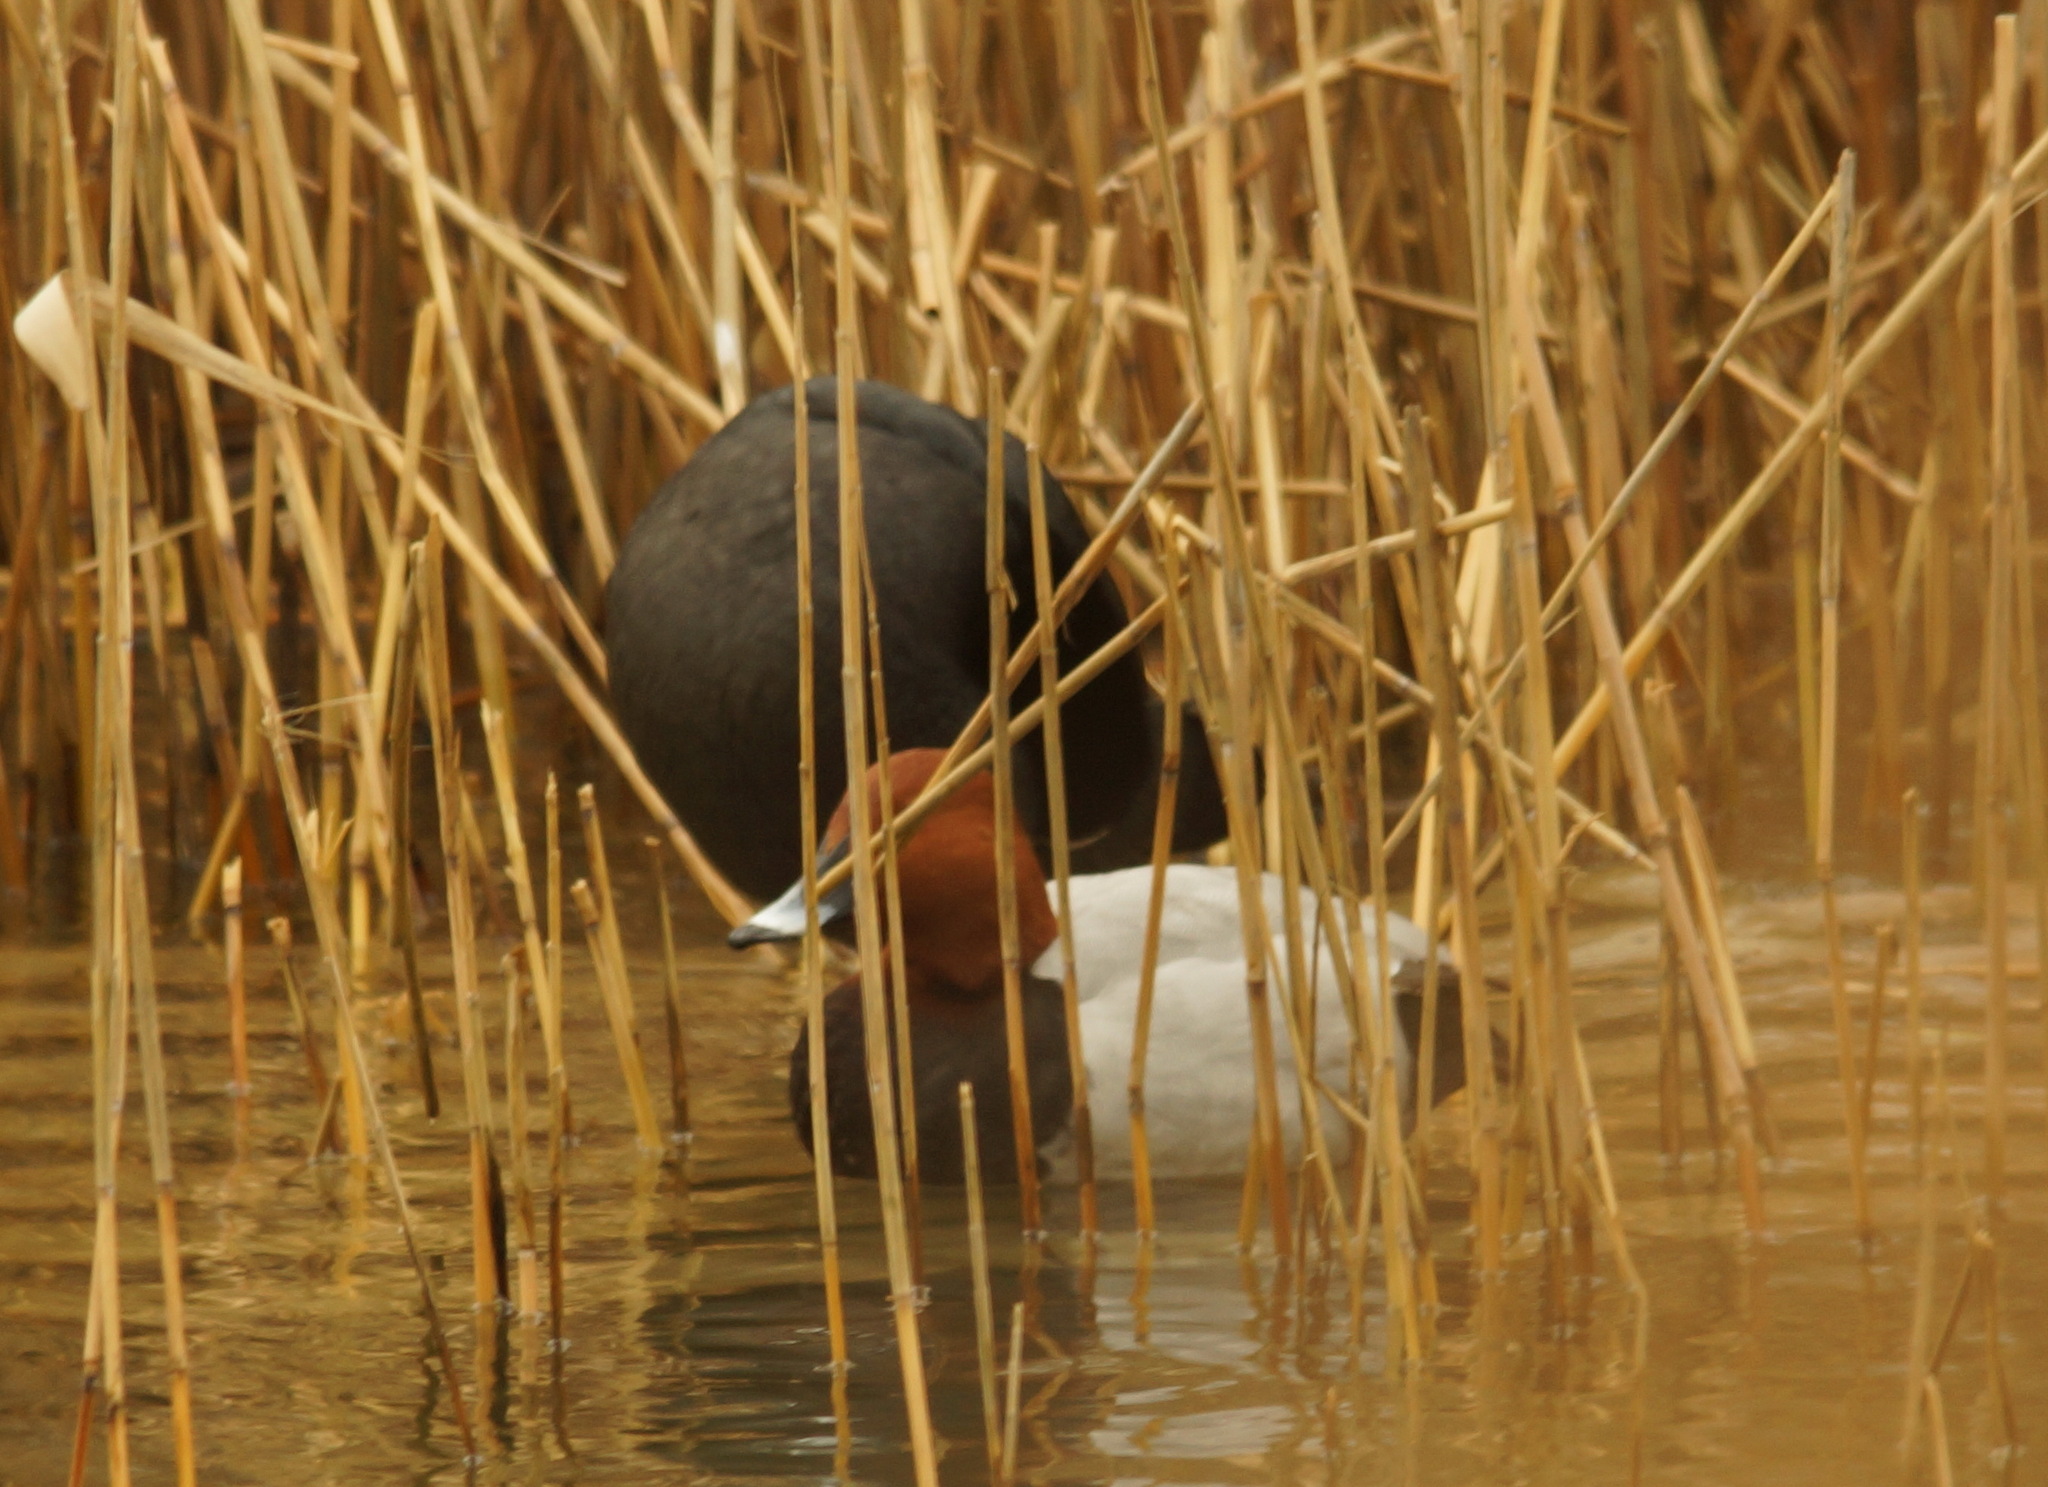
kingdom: Animalia
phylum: Chordata
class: Aves
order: Anseriformes
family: Anatidae
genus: Aythya
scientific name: Aythya ferina
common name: Common pochard
